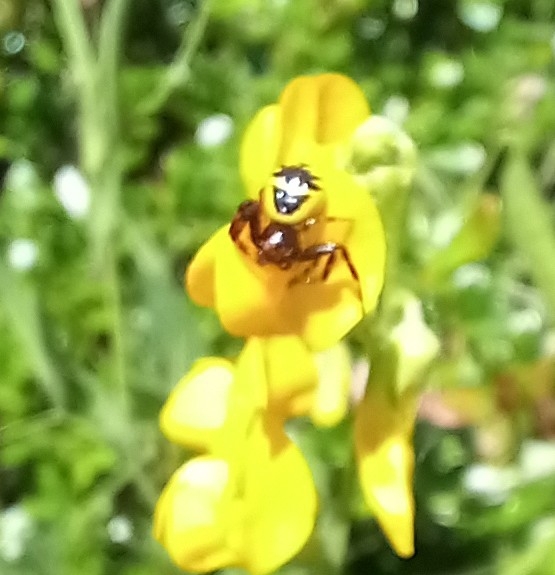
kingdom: Animalia
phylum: Arthropoda
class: Arachnida
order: Araneae
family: Thomisidae
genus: Synema
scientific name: Synema globosum
